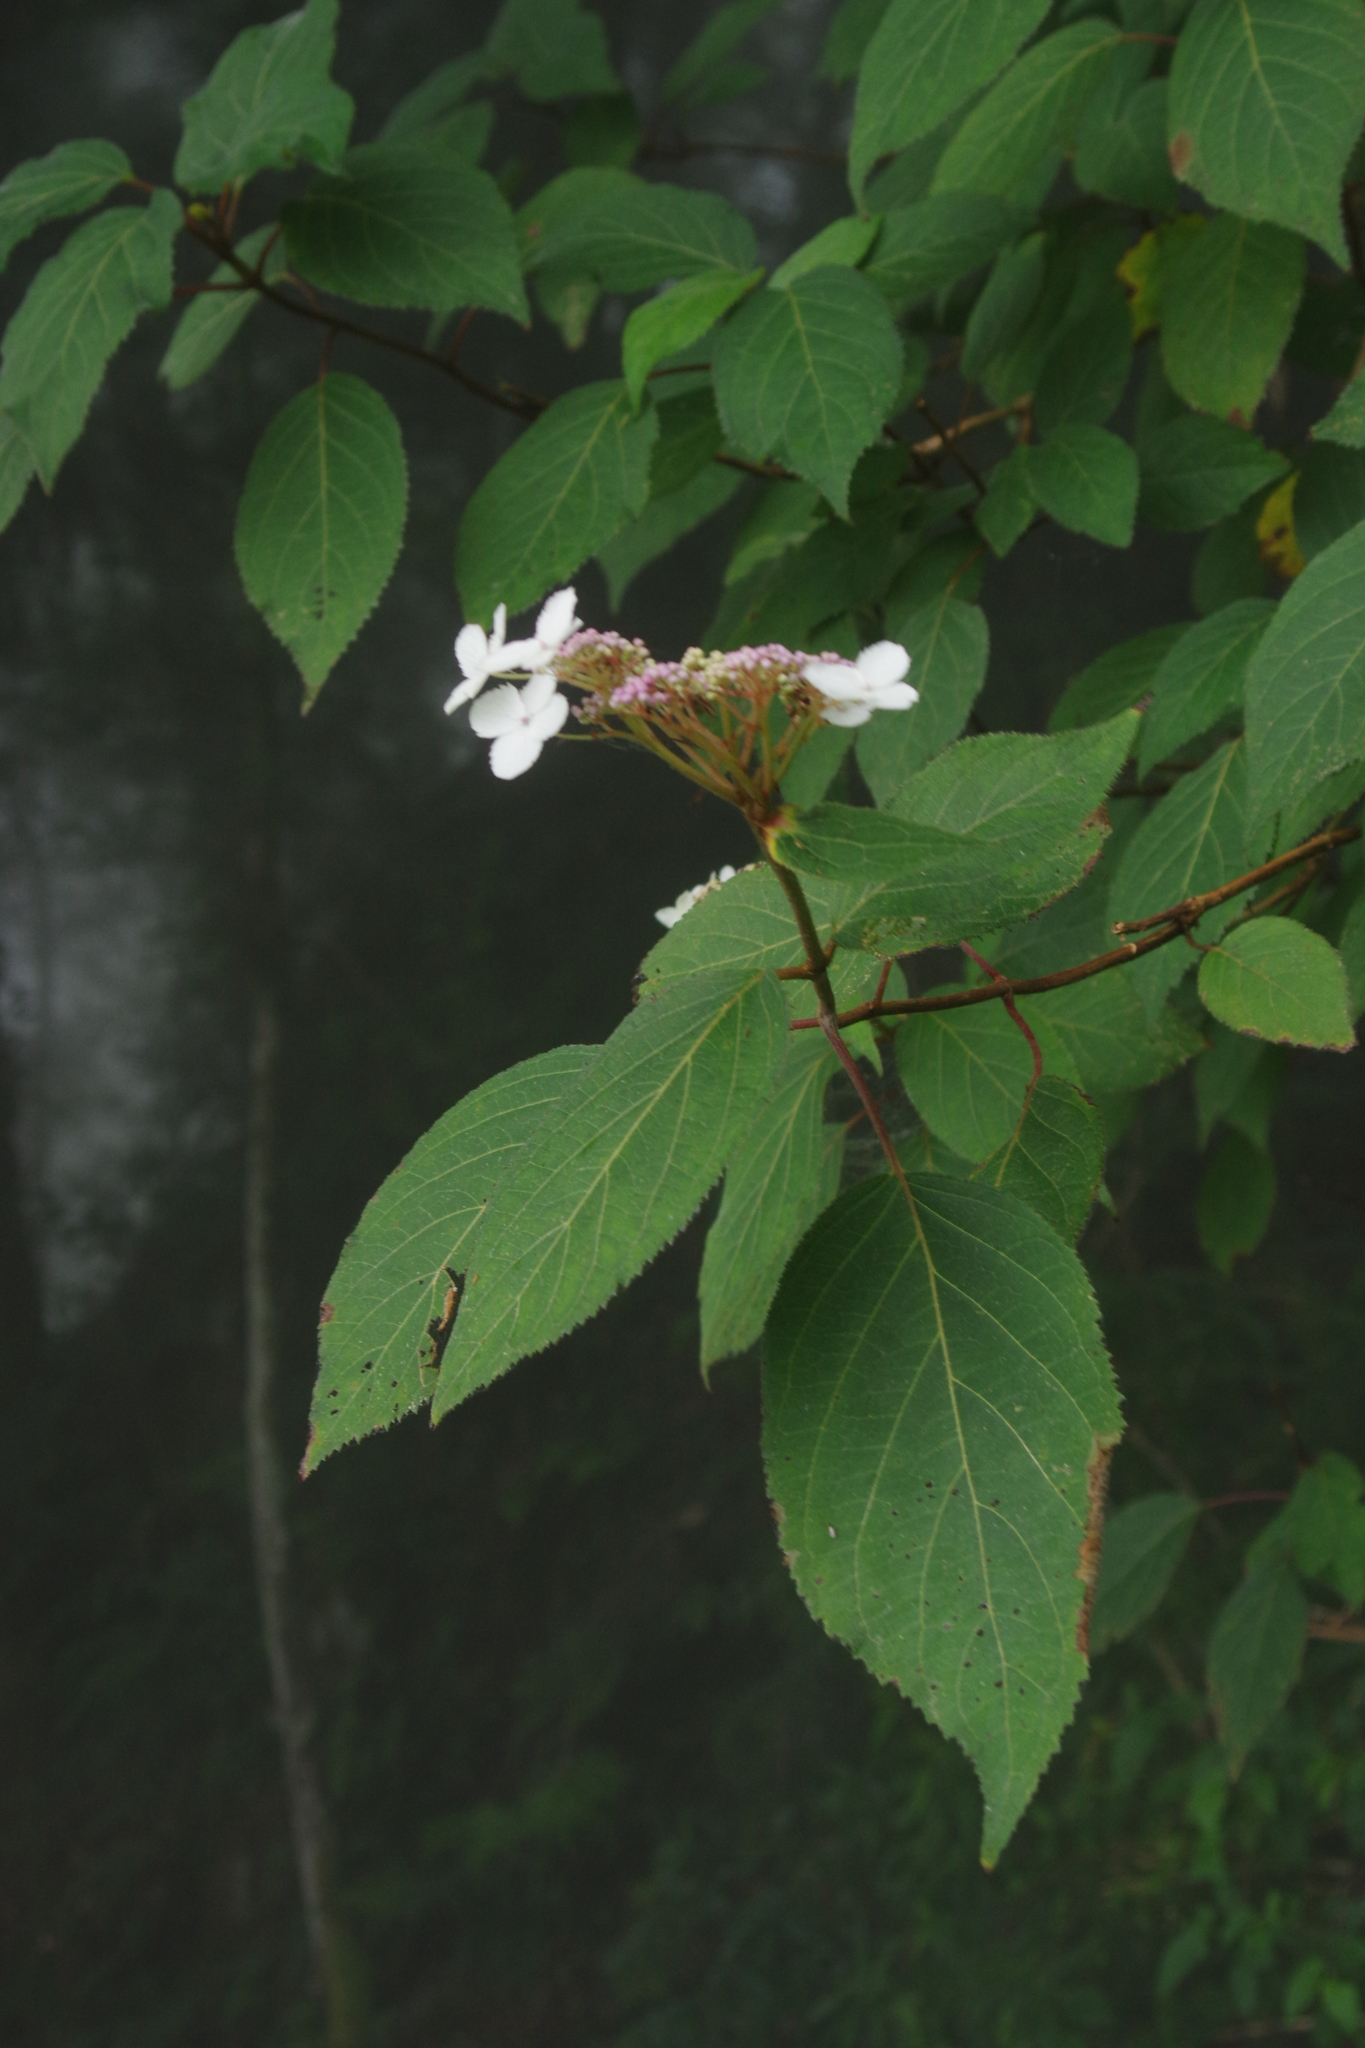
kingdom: Plantae
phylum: Tracheophyta
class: Magnoliopsida
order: Cornales
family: Hydrangeaceae
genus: Hydrangea
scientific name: Hydrangea aspera
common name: Rough-leaf hydrangea
